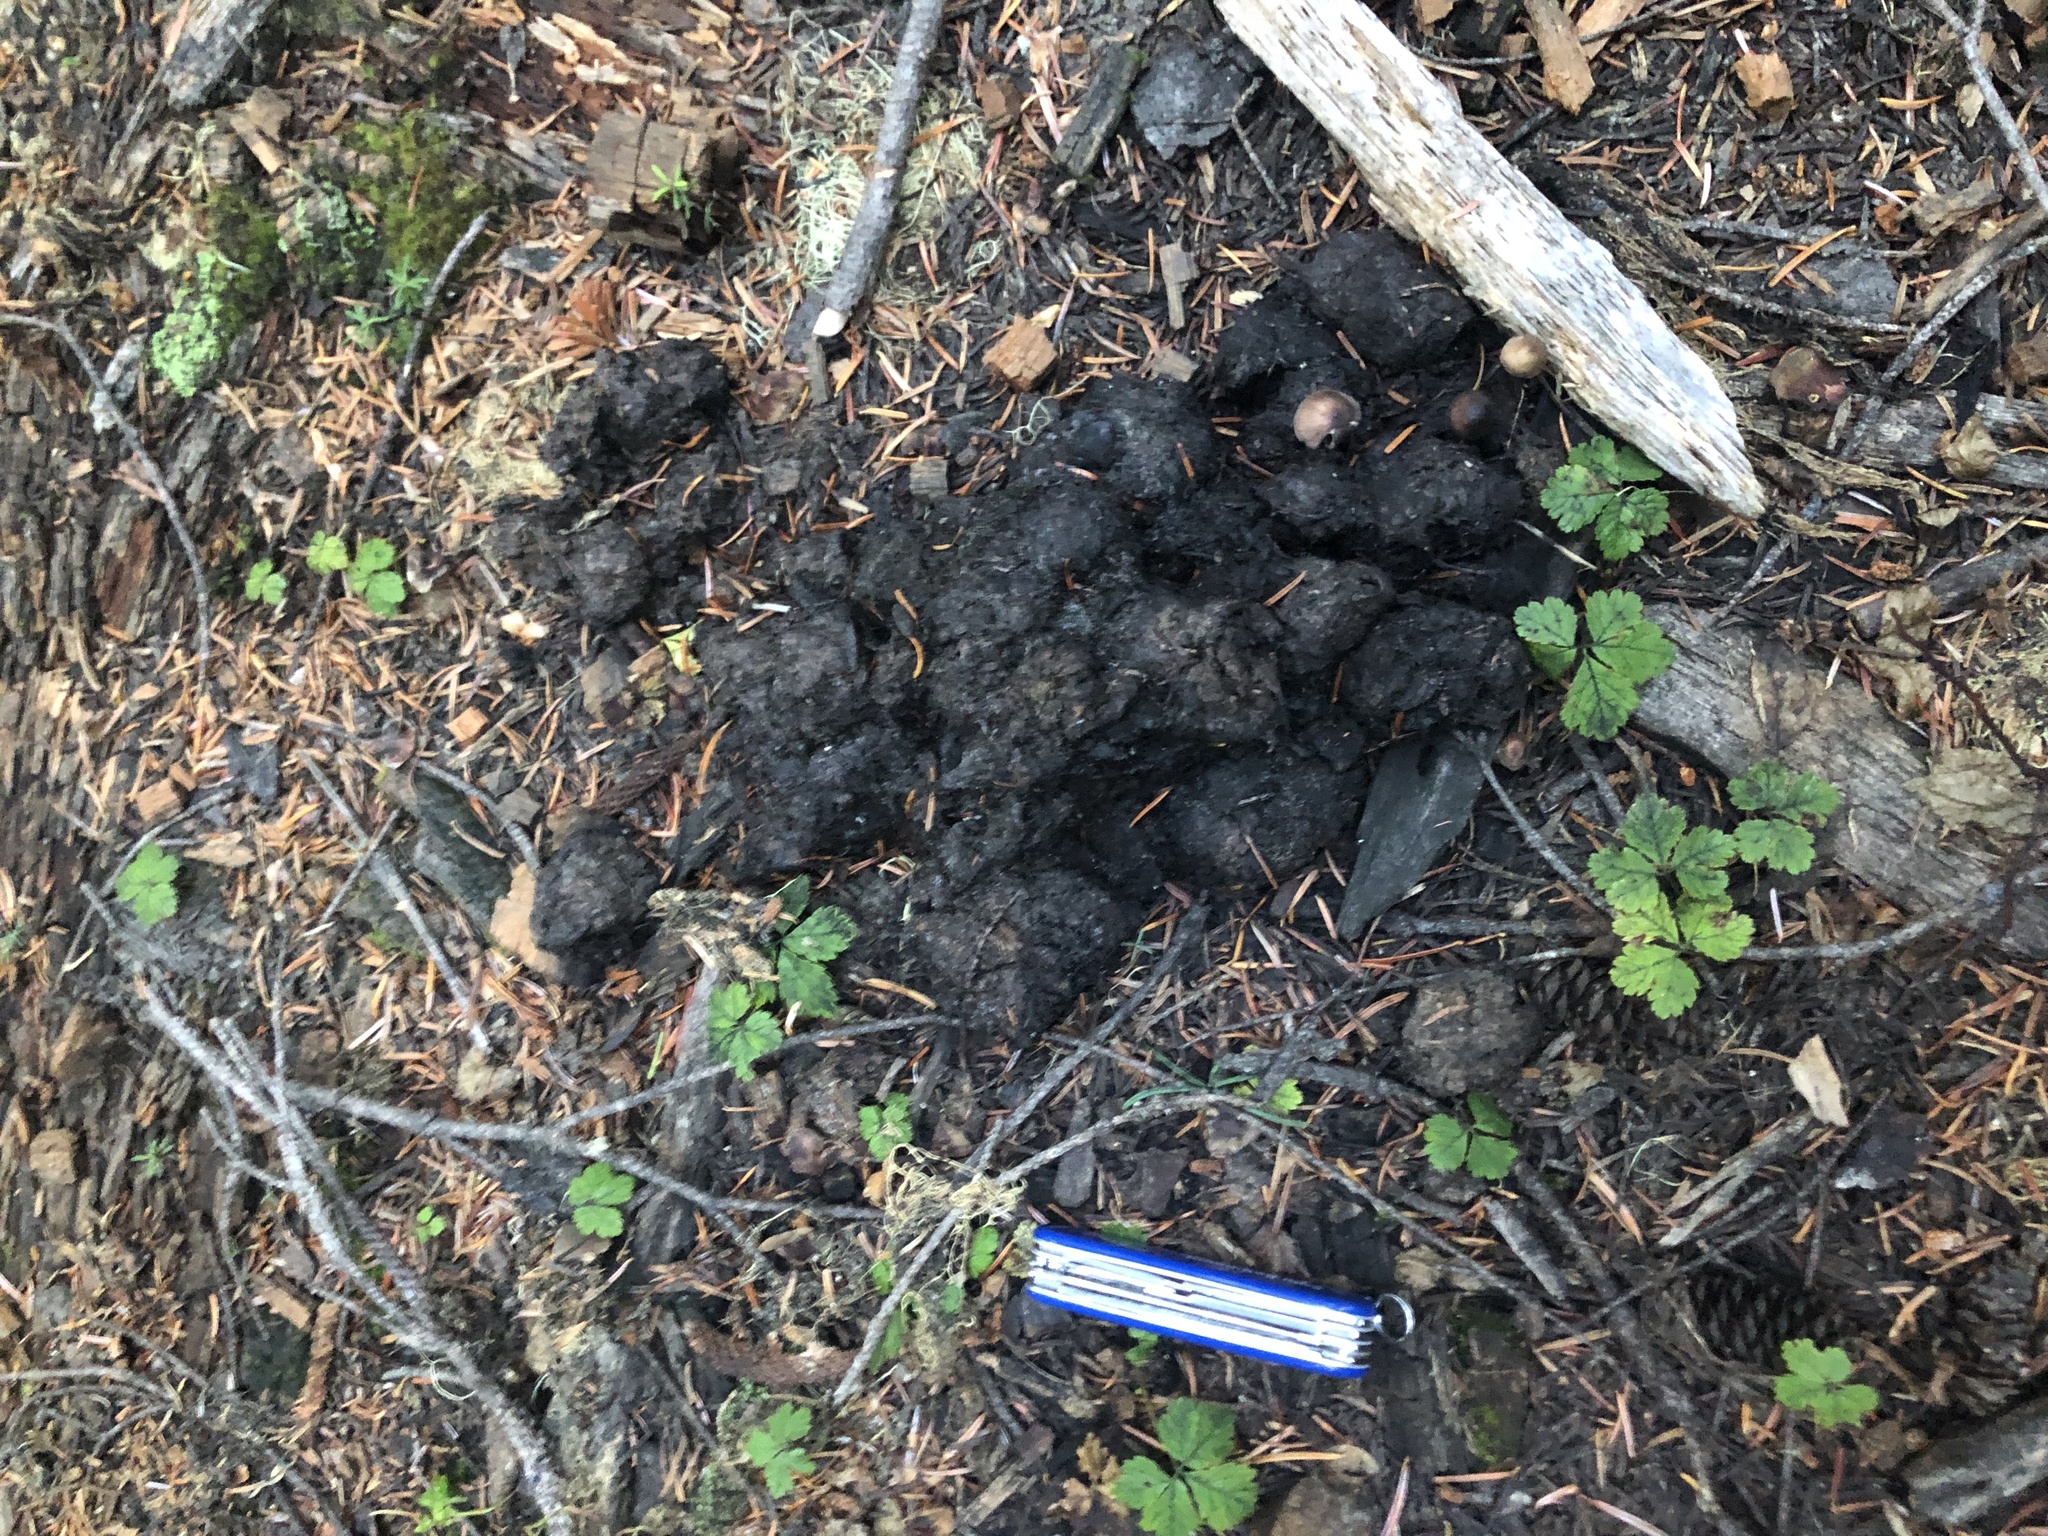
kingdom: Animalia
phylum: Chordata
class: Mammalia
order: Carnivora
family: Ursidae
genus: Ursus
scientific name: Ursus americanus
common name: American black bear
